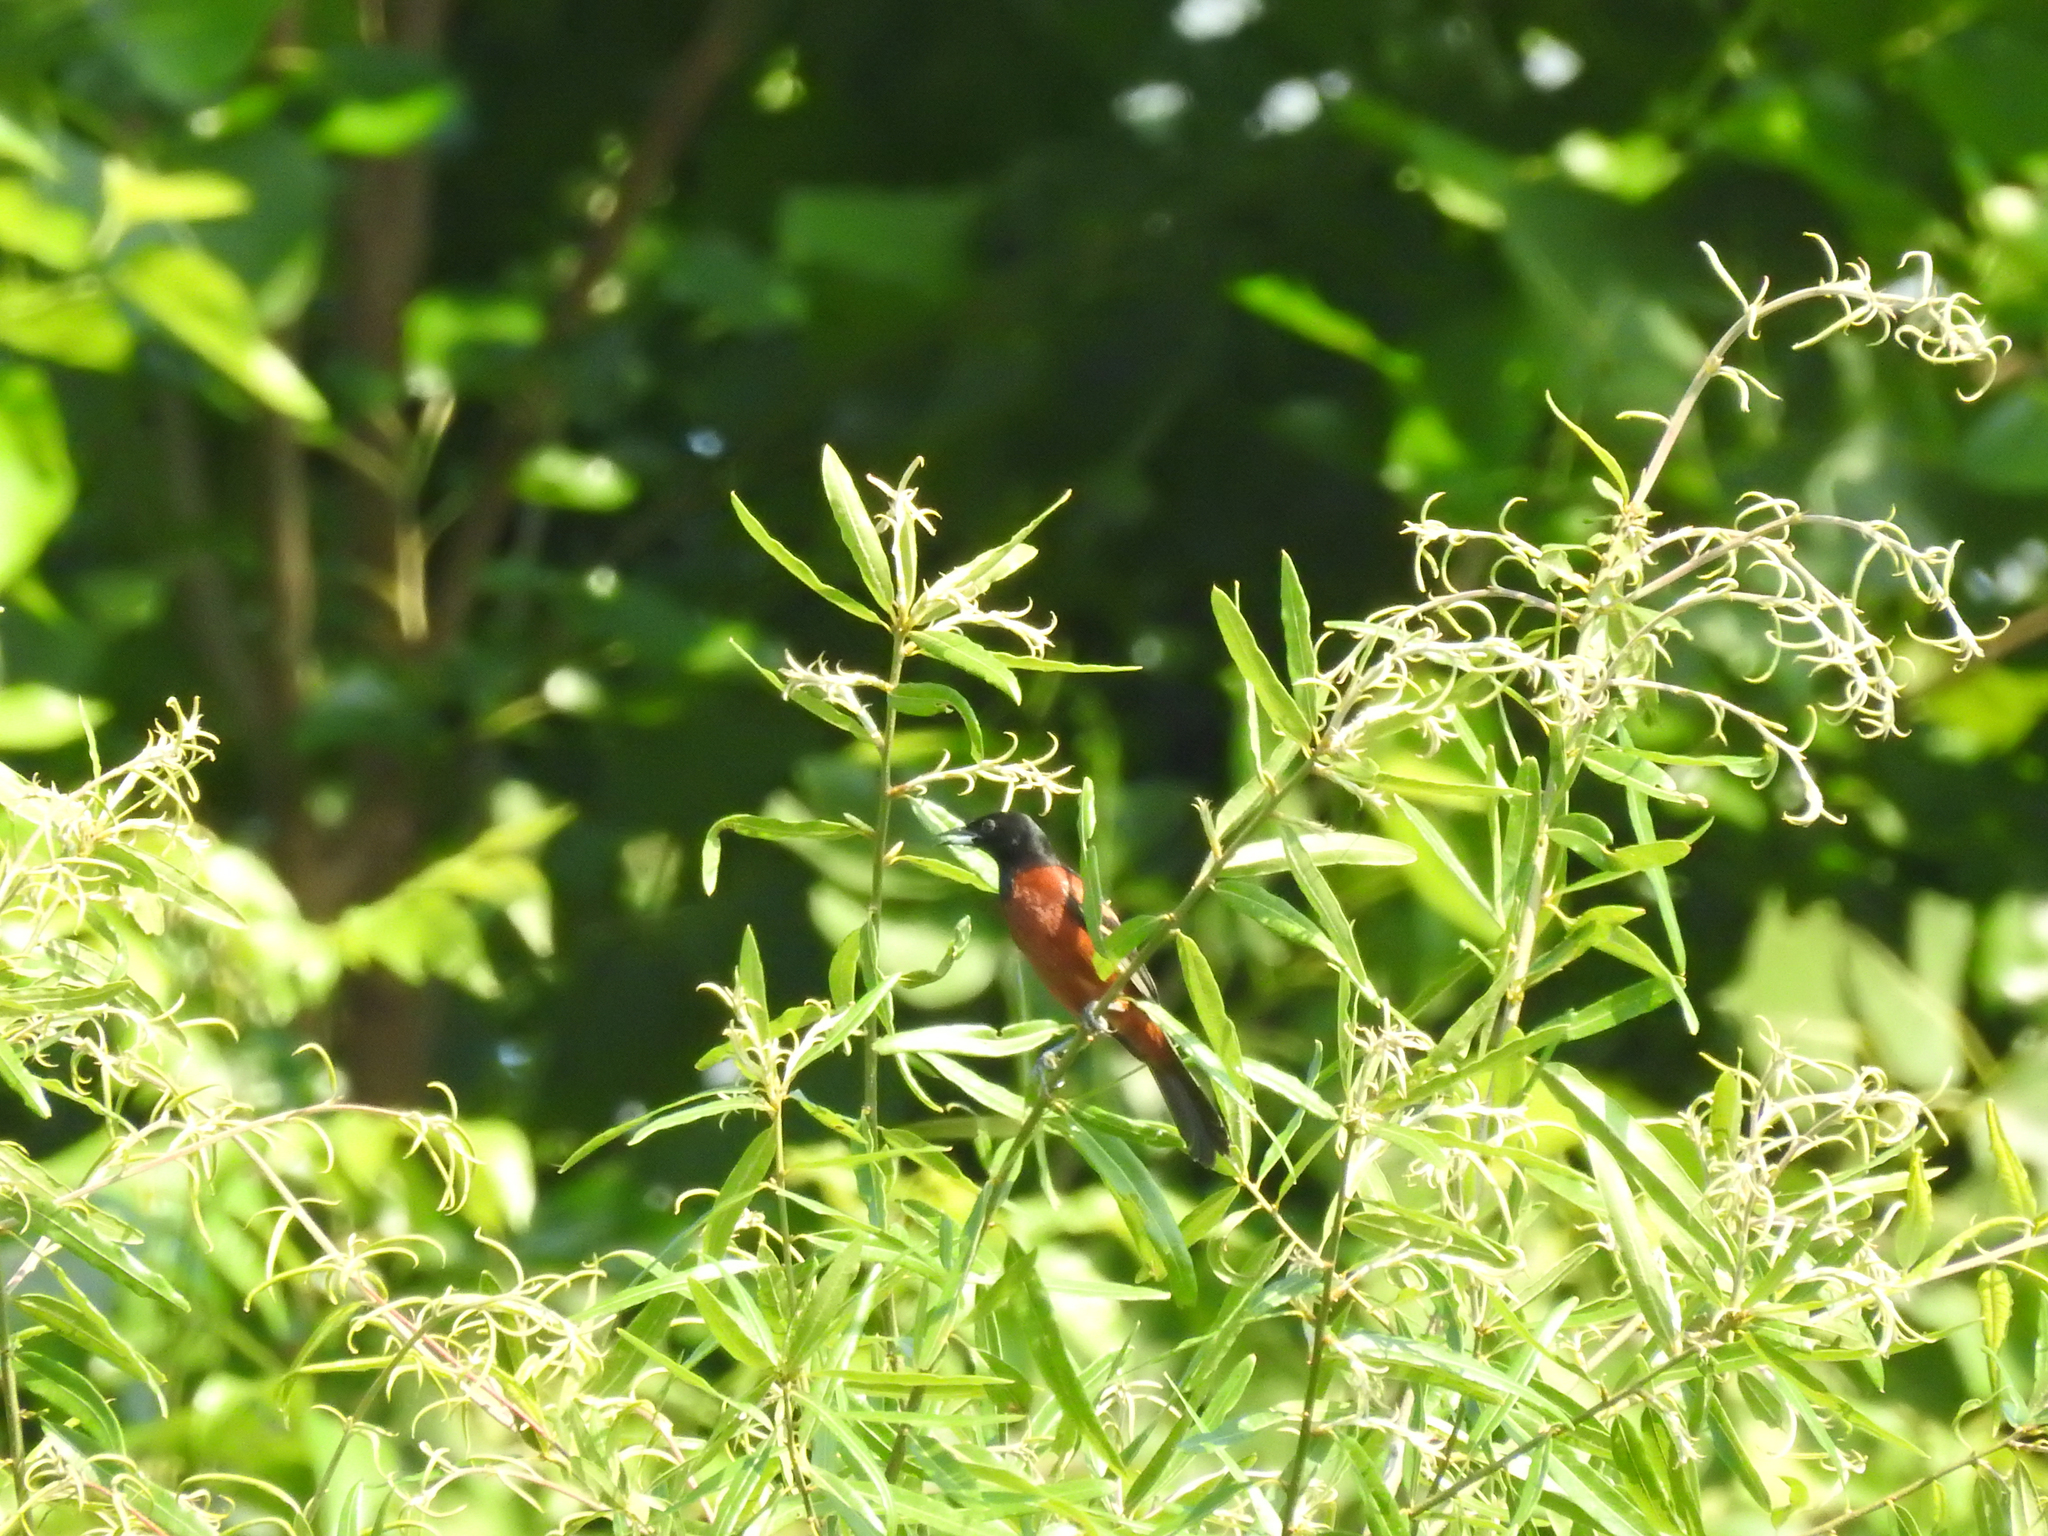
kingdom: Animalia
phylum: Chordata
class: Aves
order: Passeriformes
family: Icteridae
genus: Icterus
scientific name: Icterus spurius
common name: Orchard oriole
